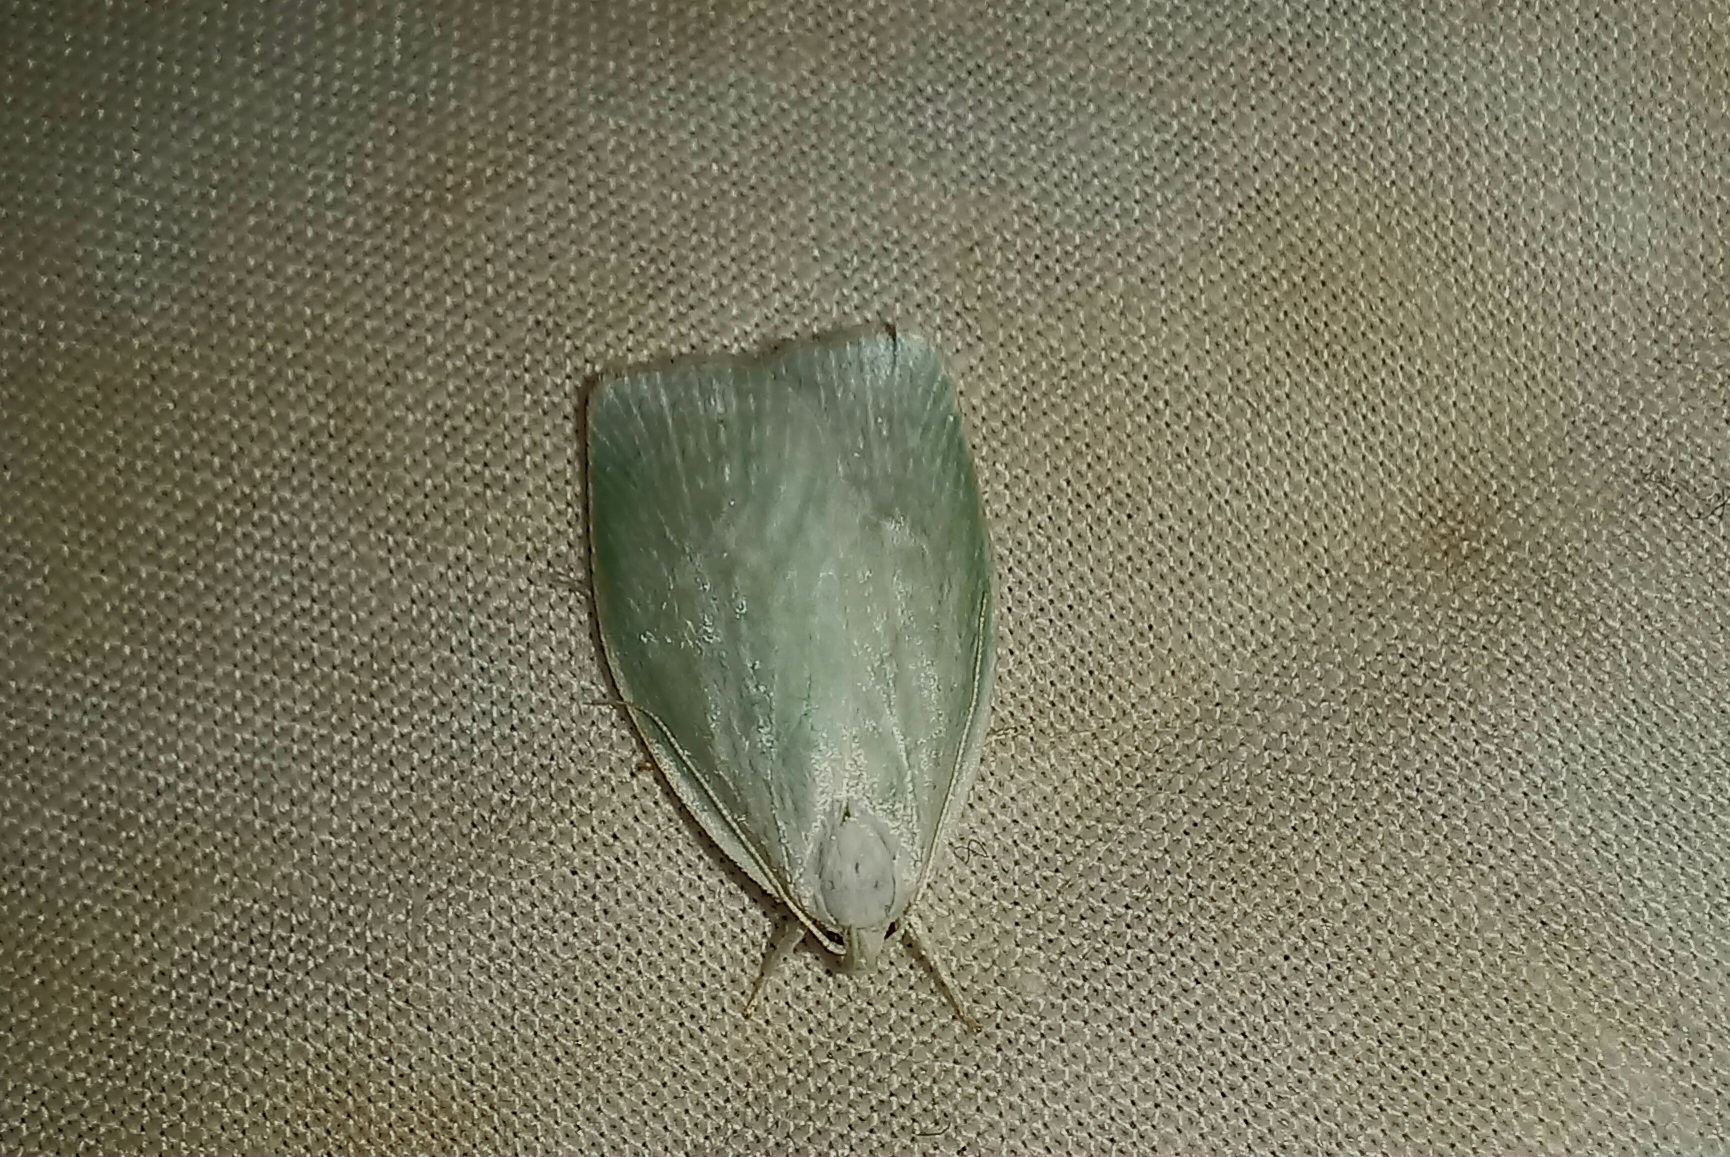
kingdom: Animalia
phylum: Arthropoda
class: Insecta
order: Lepidoptera
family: Oecophoridae
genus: Nymphostola
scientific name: Nymphostola galactina
